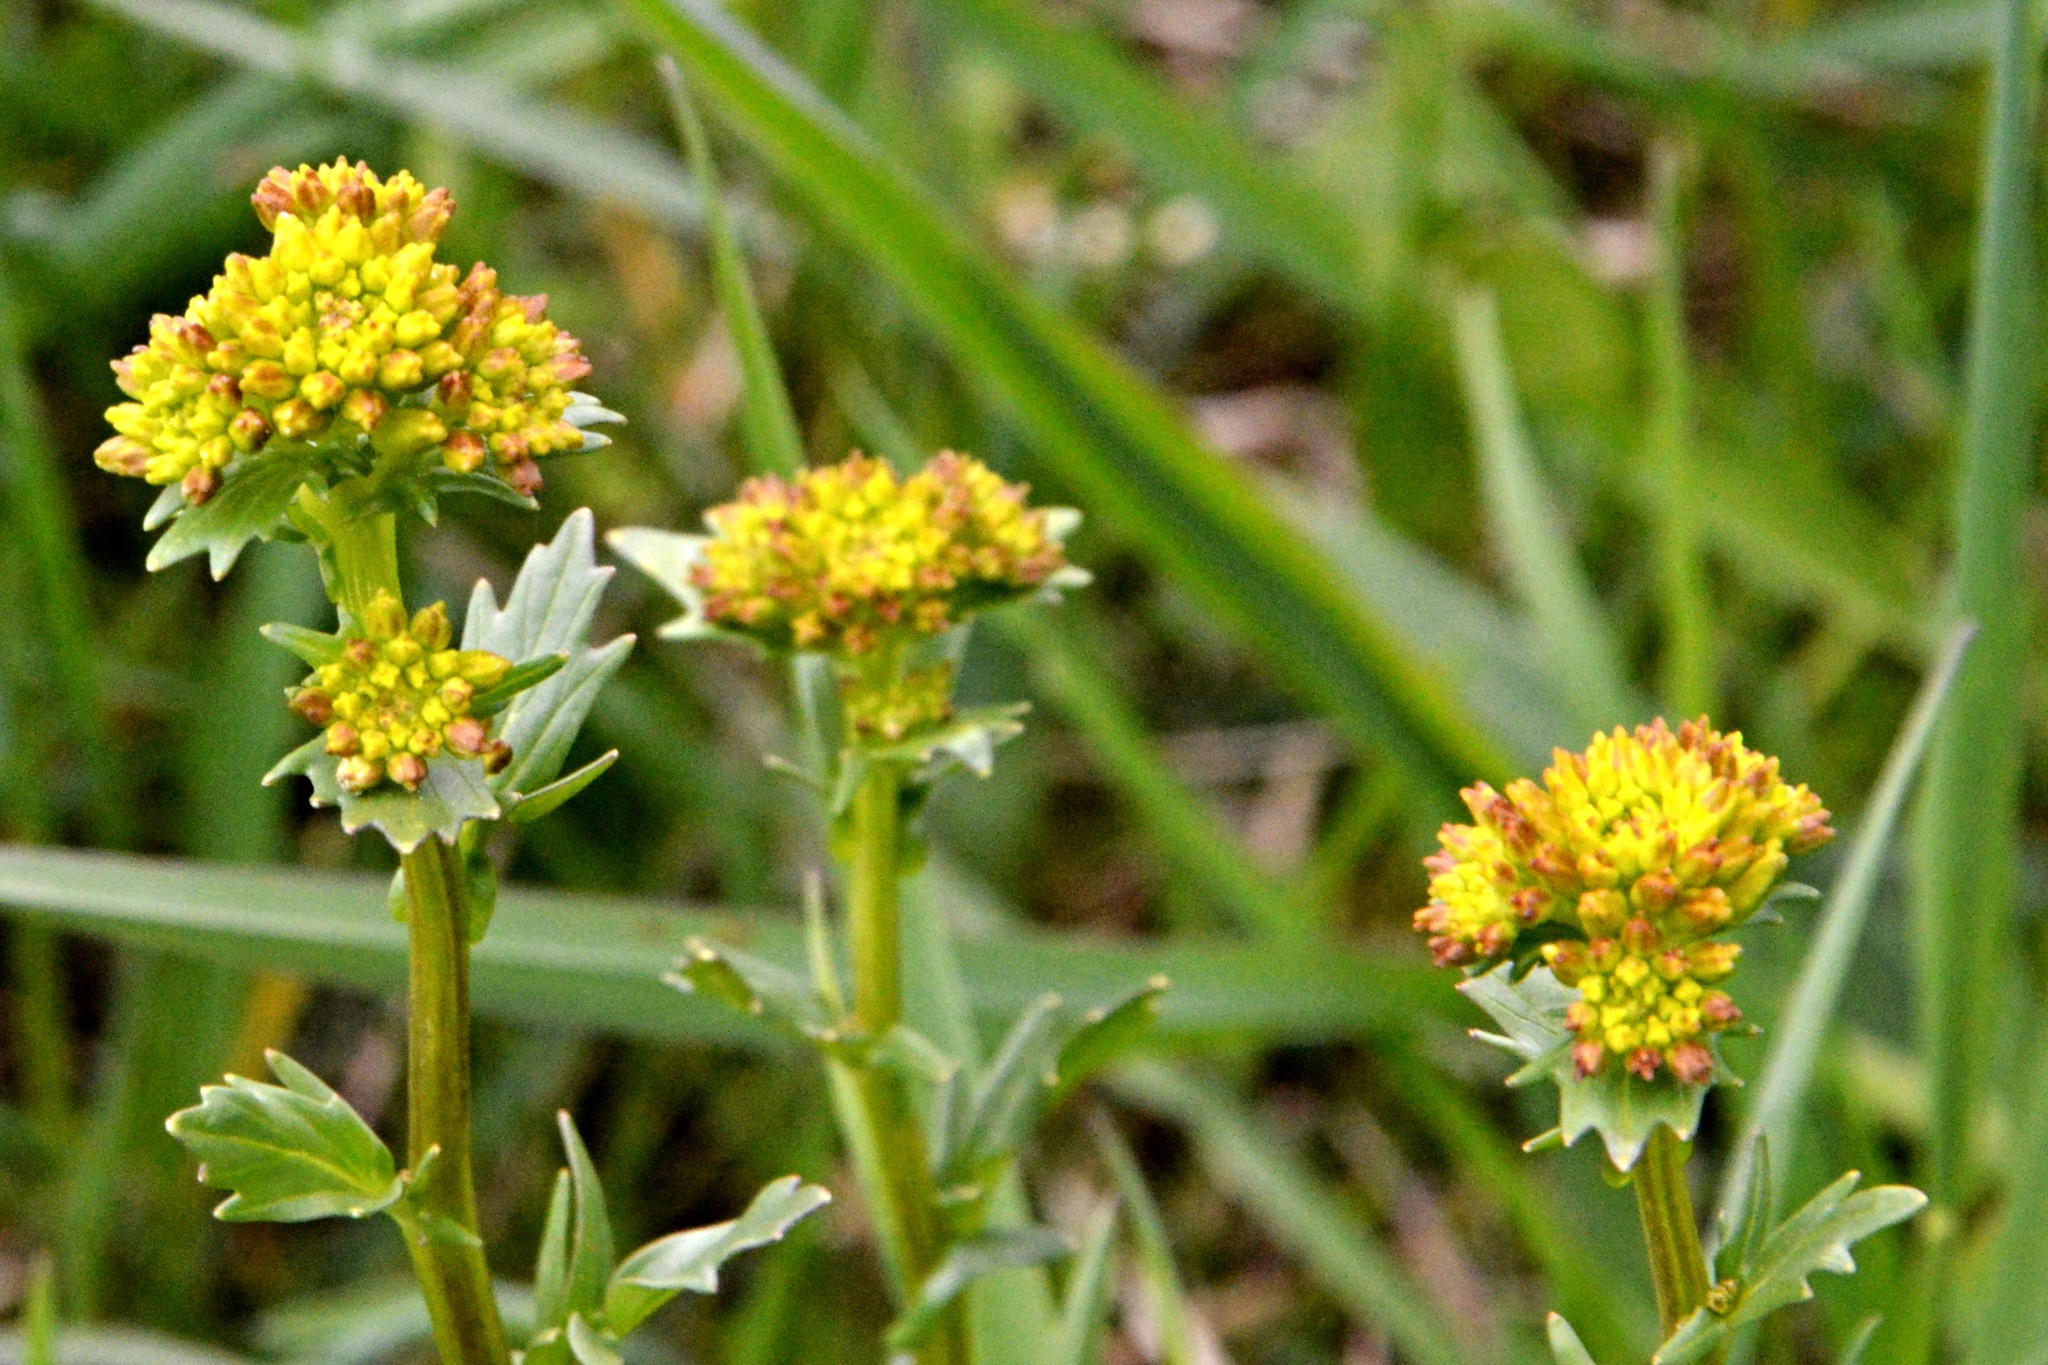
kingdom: Plantae
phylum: Tracheophyta
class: Magnoliopsida
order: Brassicales
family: Brassicaceae
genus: Barbarea
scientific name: Barbarea vulgaris
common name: Cressy-greens
